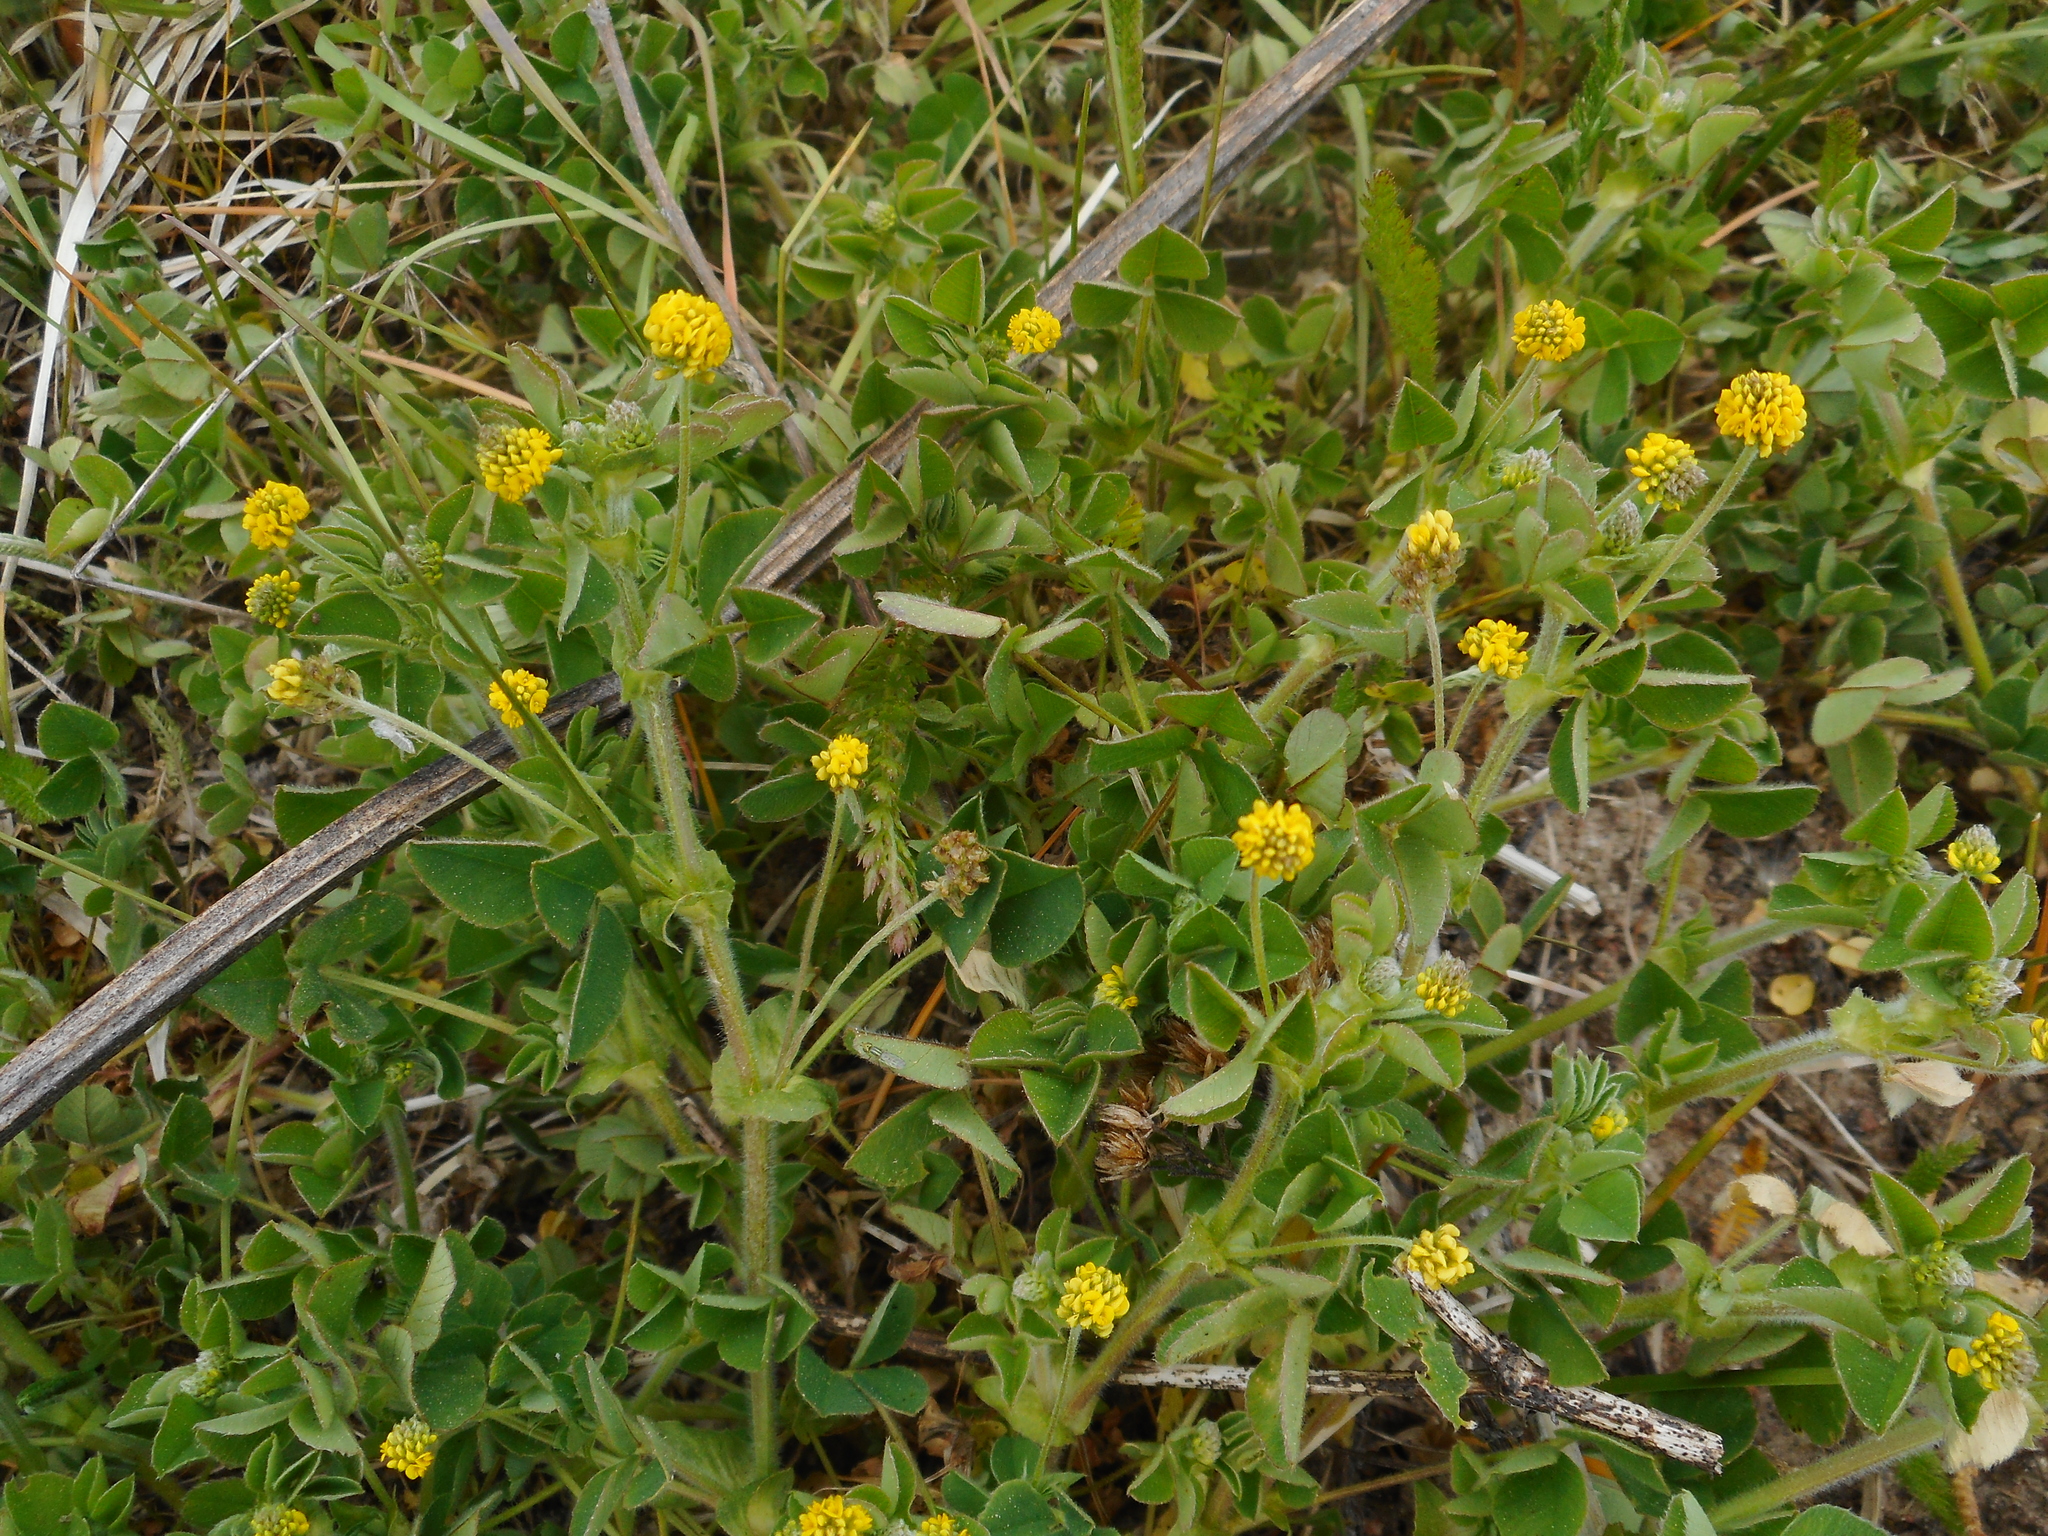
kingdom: Plantae
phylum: Tracheophyta
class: Magnoliopsida
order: Fabales
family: Fabaceae
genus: Medicago
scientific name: Medicago lupulina
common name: Black medick
